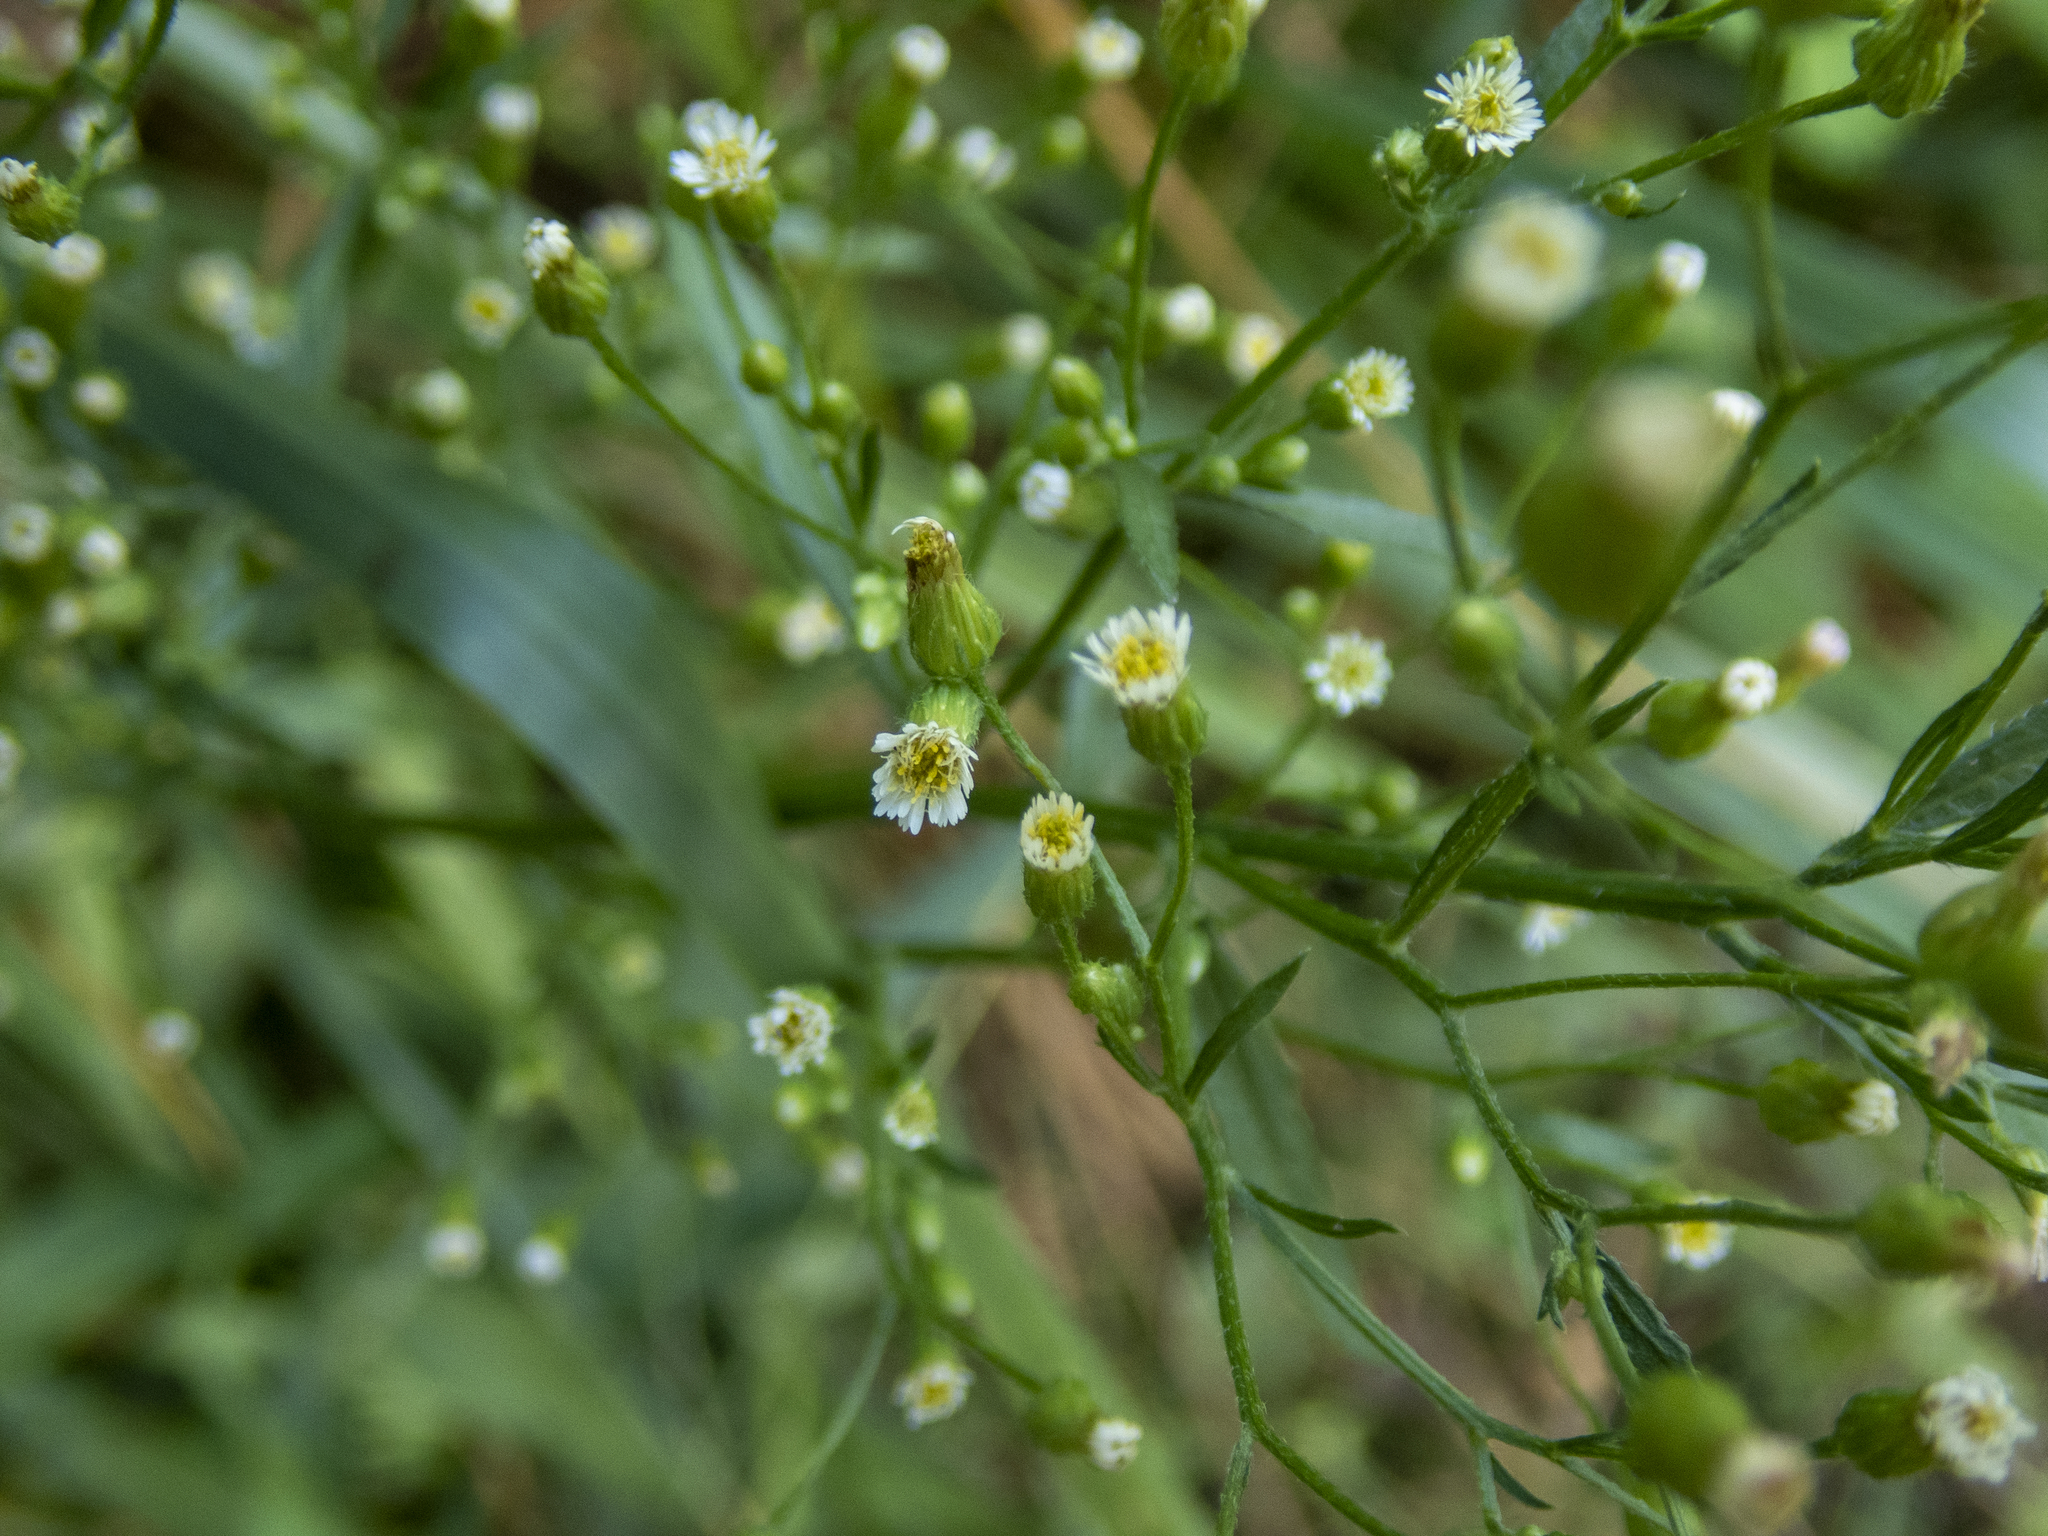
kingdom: Plantae
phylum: Tracheophyta
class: Magnoliopsida
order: Asterales
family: Asteraceae
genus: Erigeron
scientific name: Erigeron canadensis
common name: Canadian fleabane
